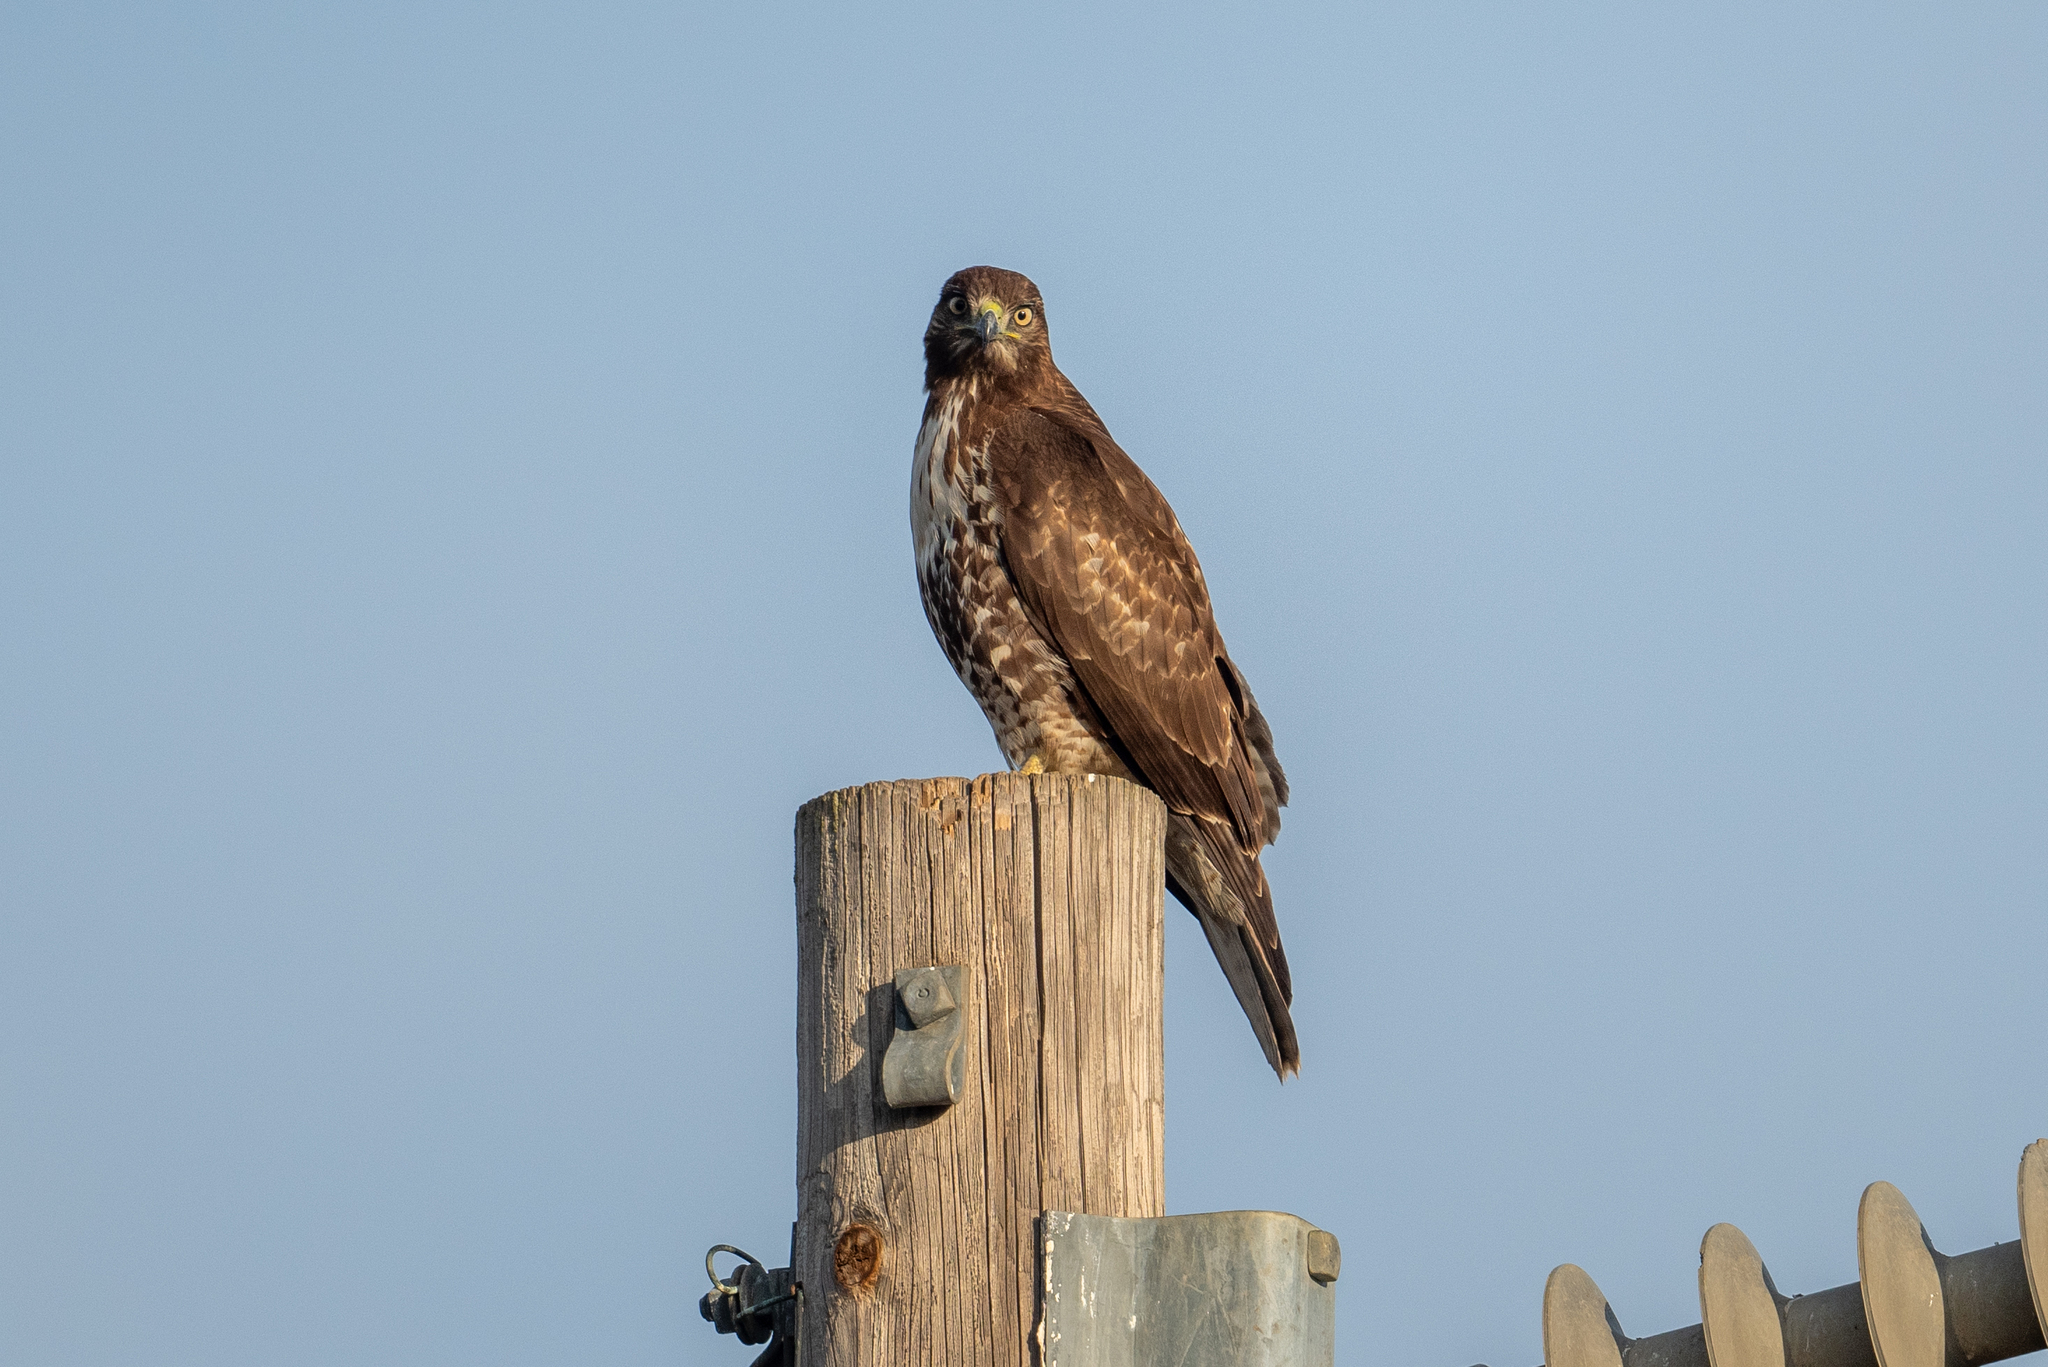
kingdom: Animalia
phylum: Chordata
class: Aves
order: Accipitriformes
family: Accipitridae
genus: Buteo
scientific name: Buteo jamaicensis
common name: Red-tailed hawk
